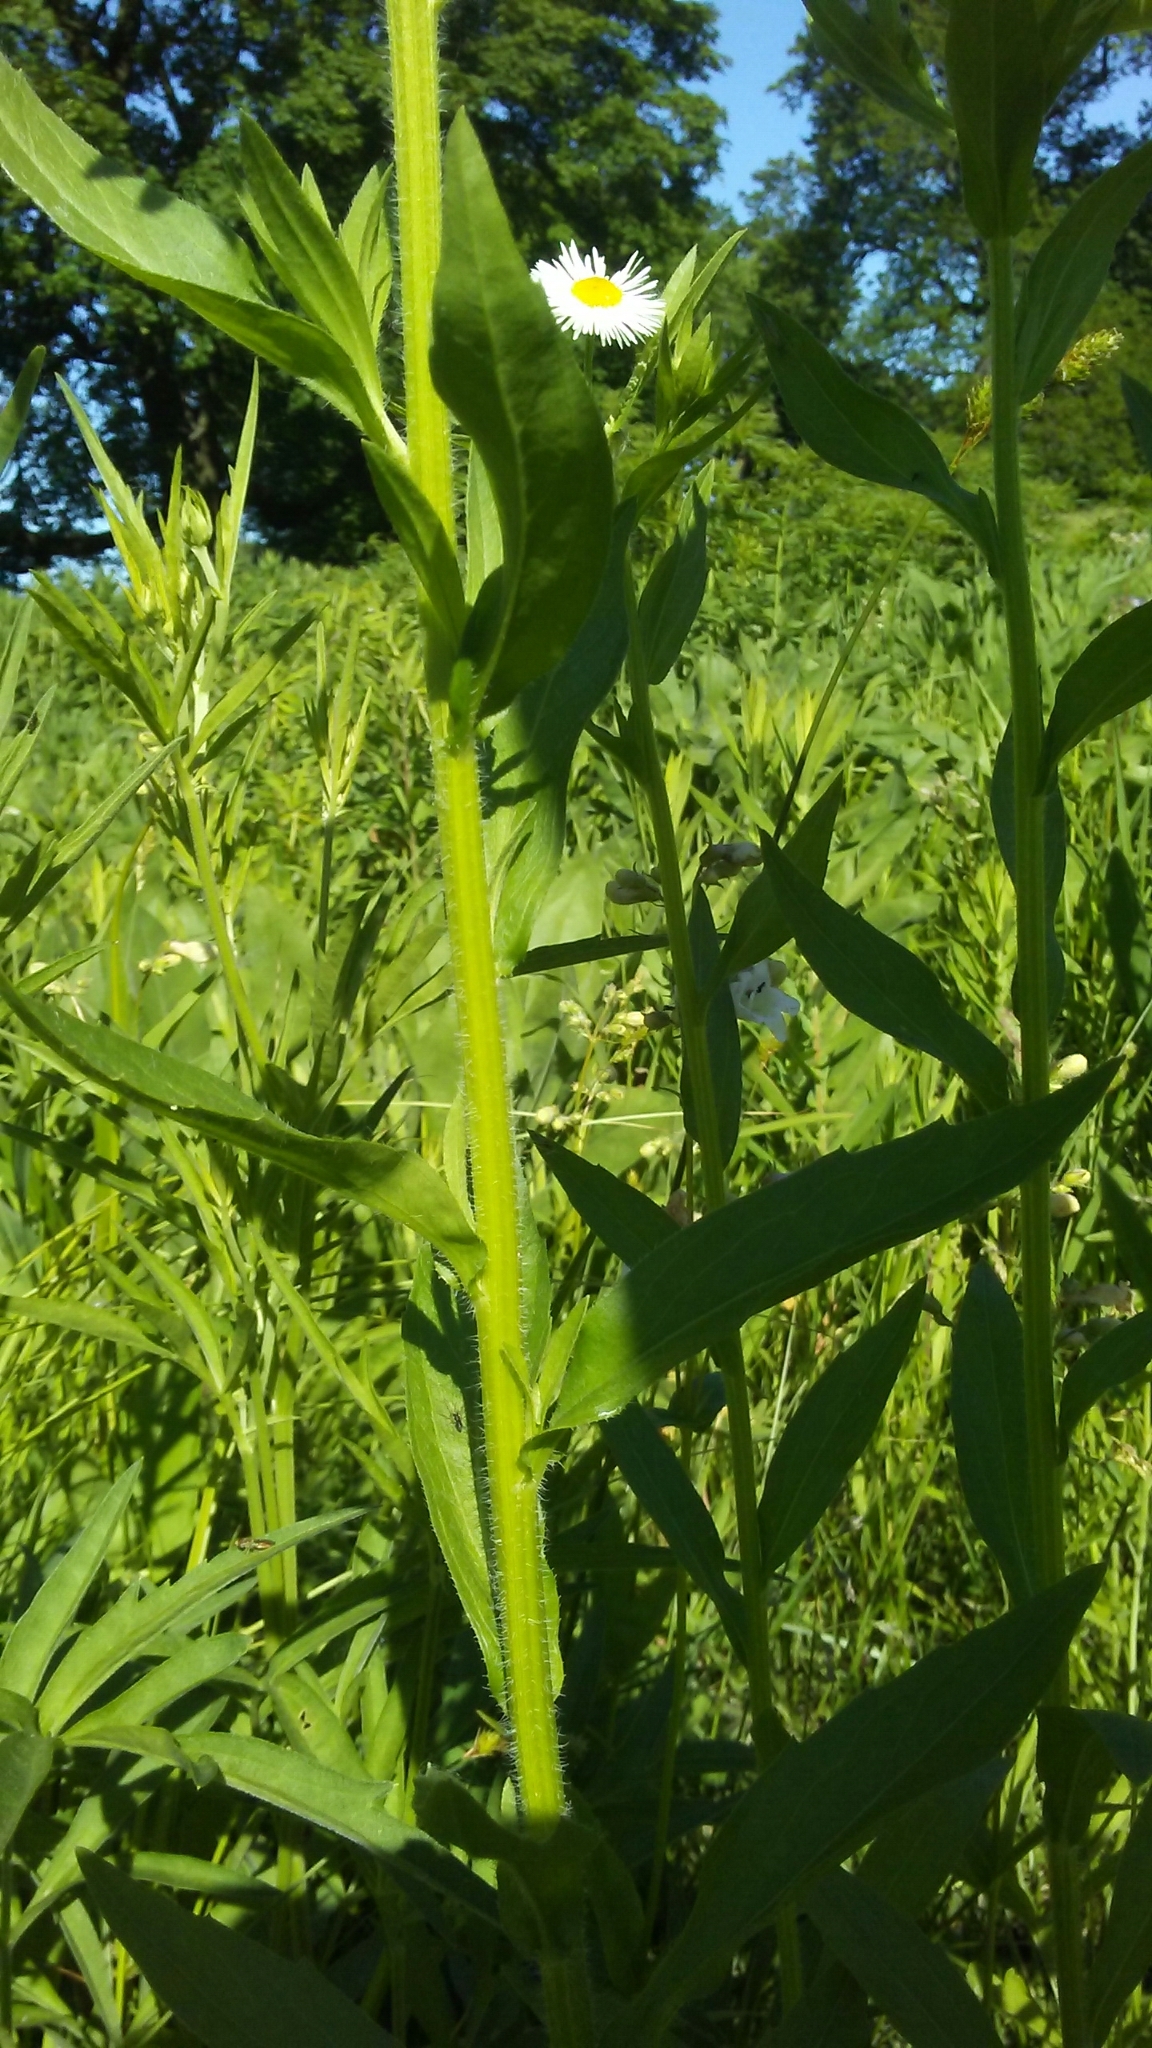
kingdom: Plantae
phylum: Tracheophyta
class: Magnoliopsida
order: Asterales
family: Asteraceae
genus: Erigeron
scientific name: Erigeron annuus
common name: Tall fleabane
